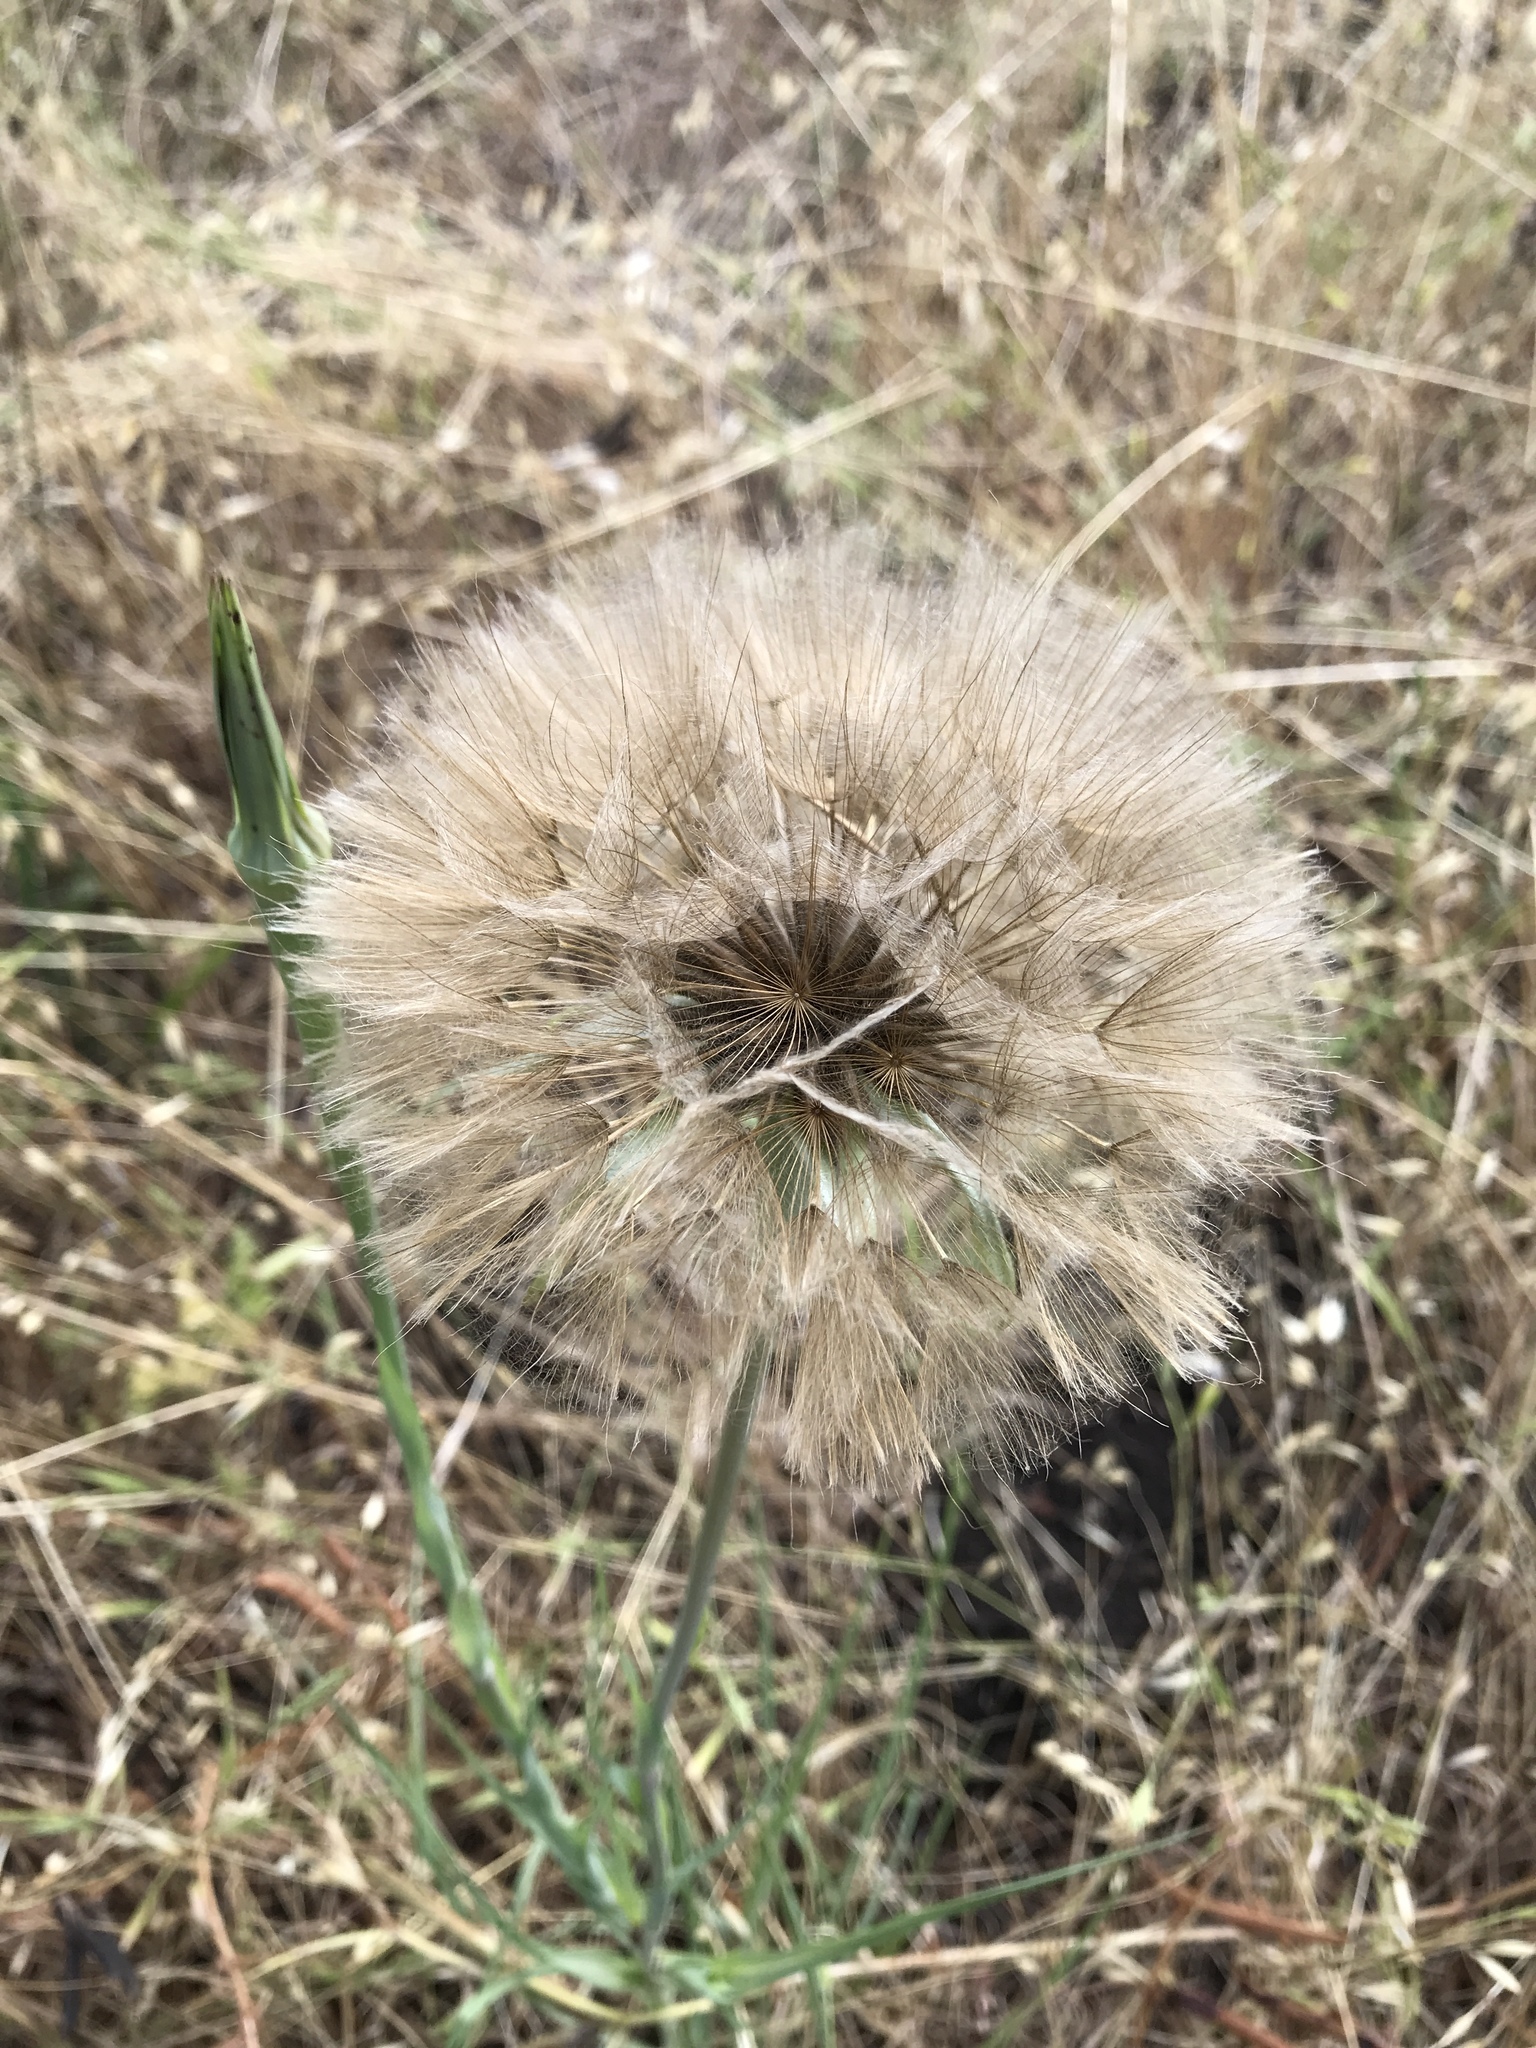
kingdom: Plantae
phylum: Tracheophyta
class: Magnoliopsida
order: Asterales
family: Asteraceae
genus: Tragopogon
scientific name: Tragopogon porrifolius
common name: Salsify
